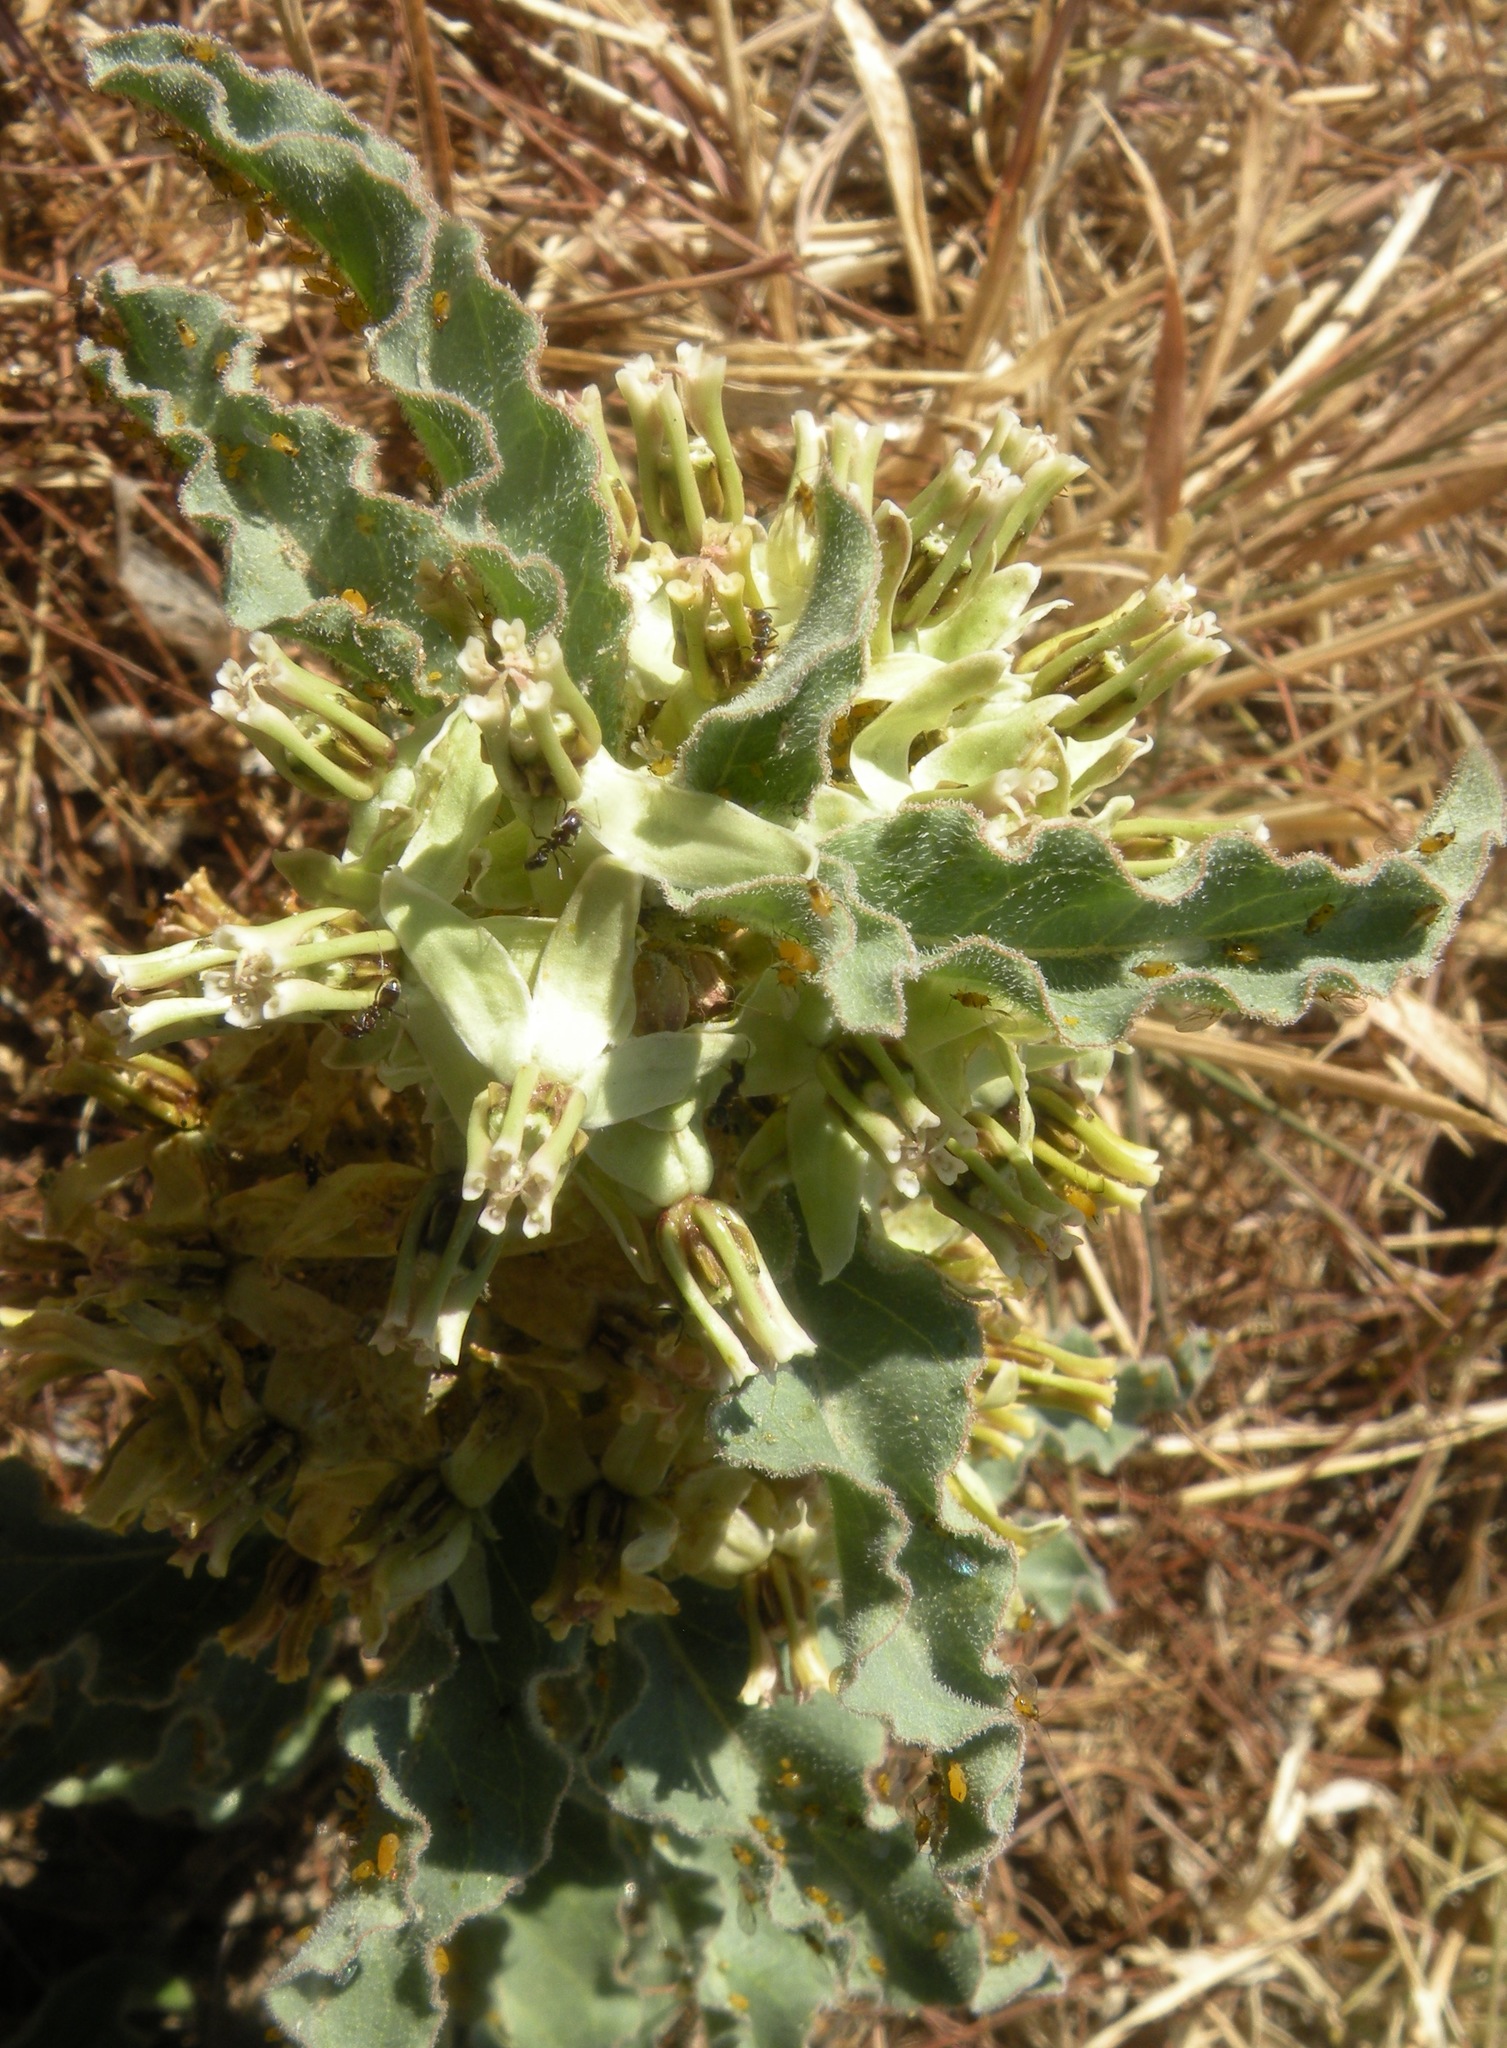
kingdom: Animalia
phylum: Arthropoda
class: Insecta
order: Hemiptera
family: Aphididae
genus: Aphis
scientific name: Aphis nerii
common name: Oleander aphid
